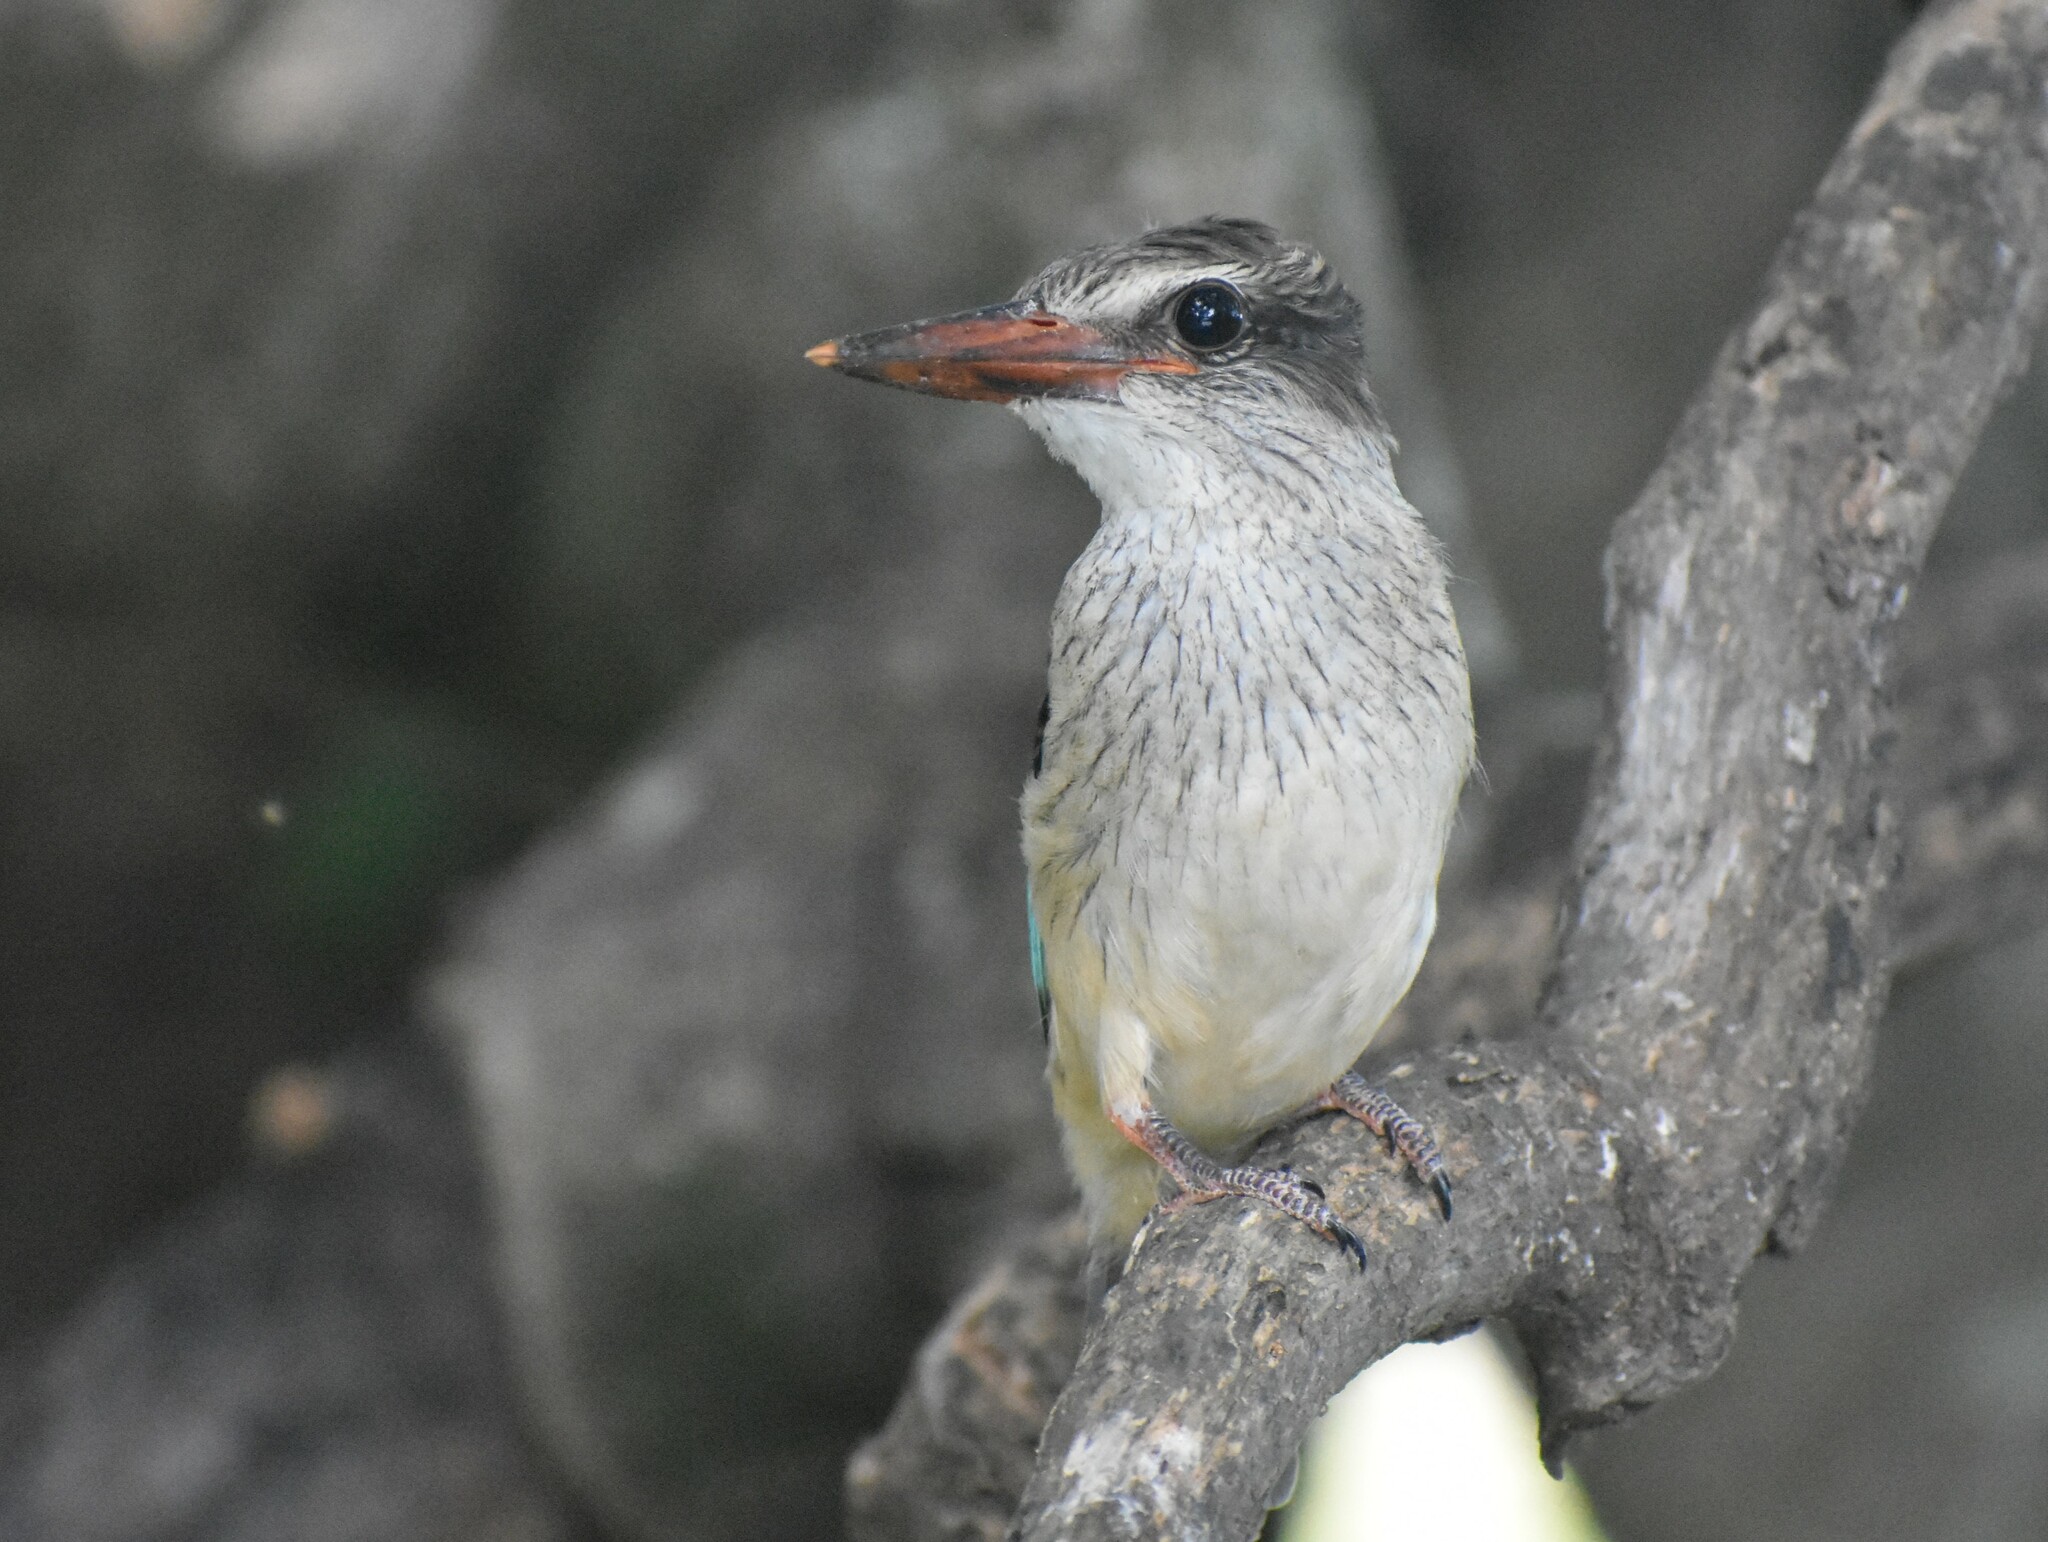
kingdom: Animalia
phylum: Chordata
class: Aves
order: Coraciiformes
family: Alcedinidae
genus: Halcyon
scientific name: Halcyon albiventris
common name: Brown-hooded kingfisher
